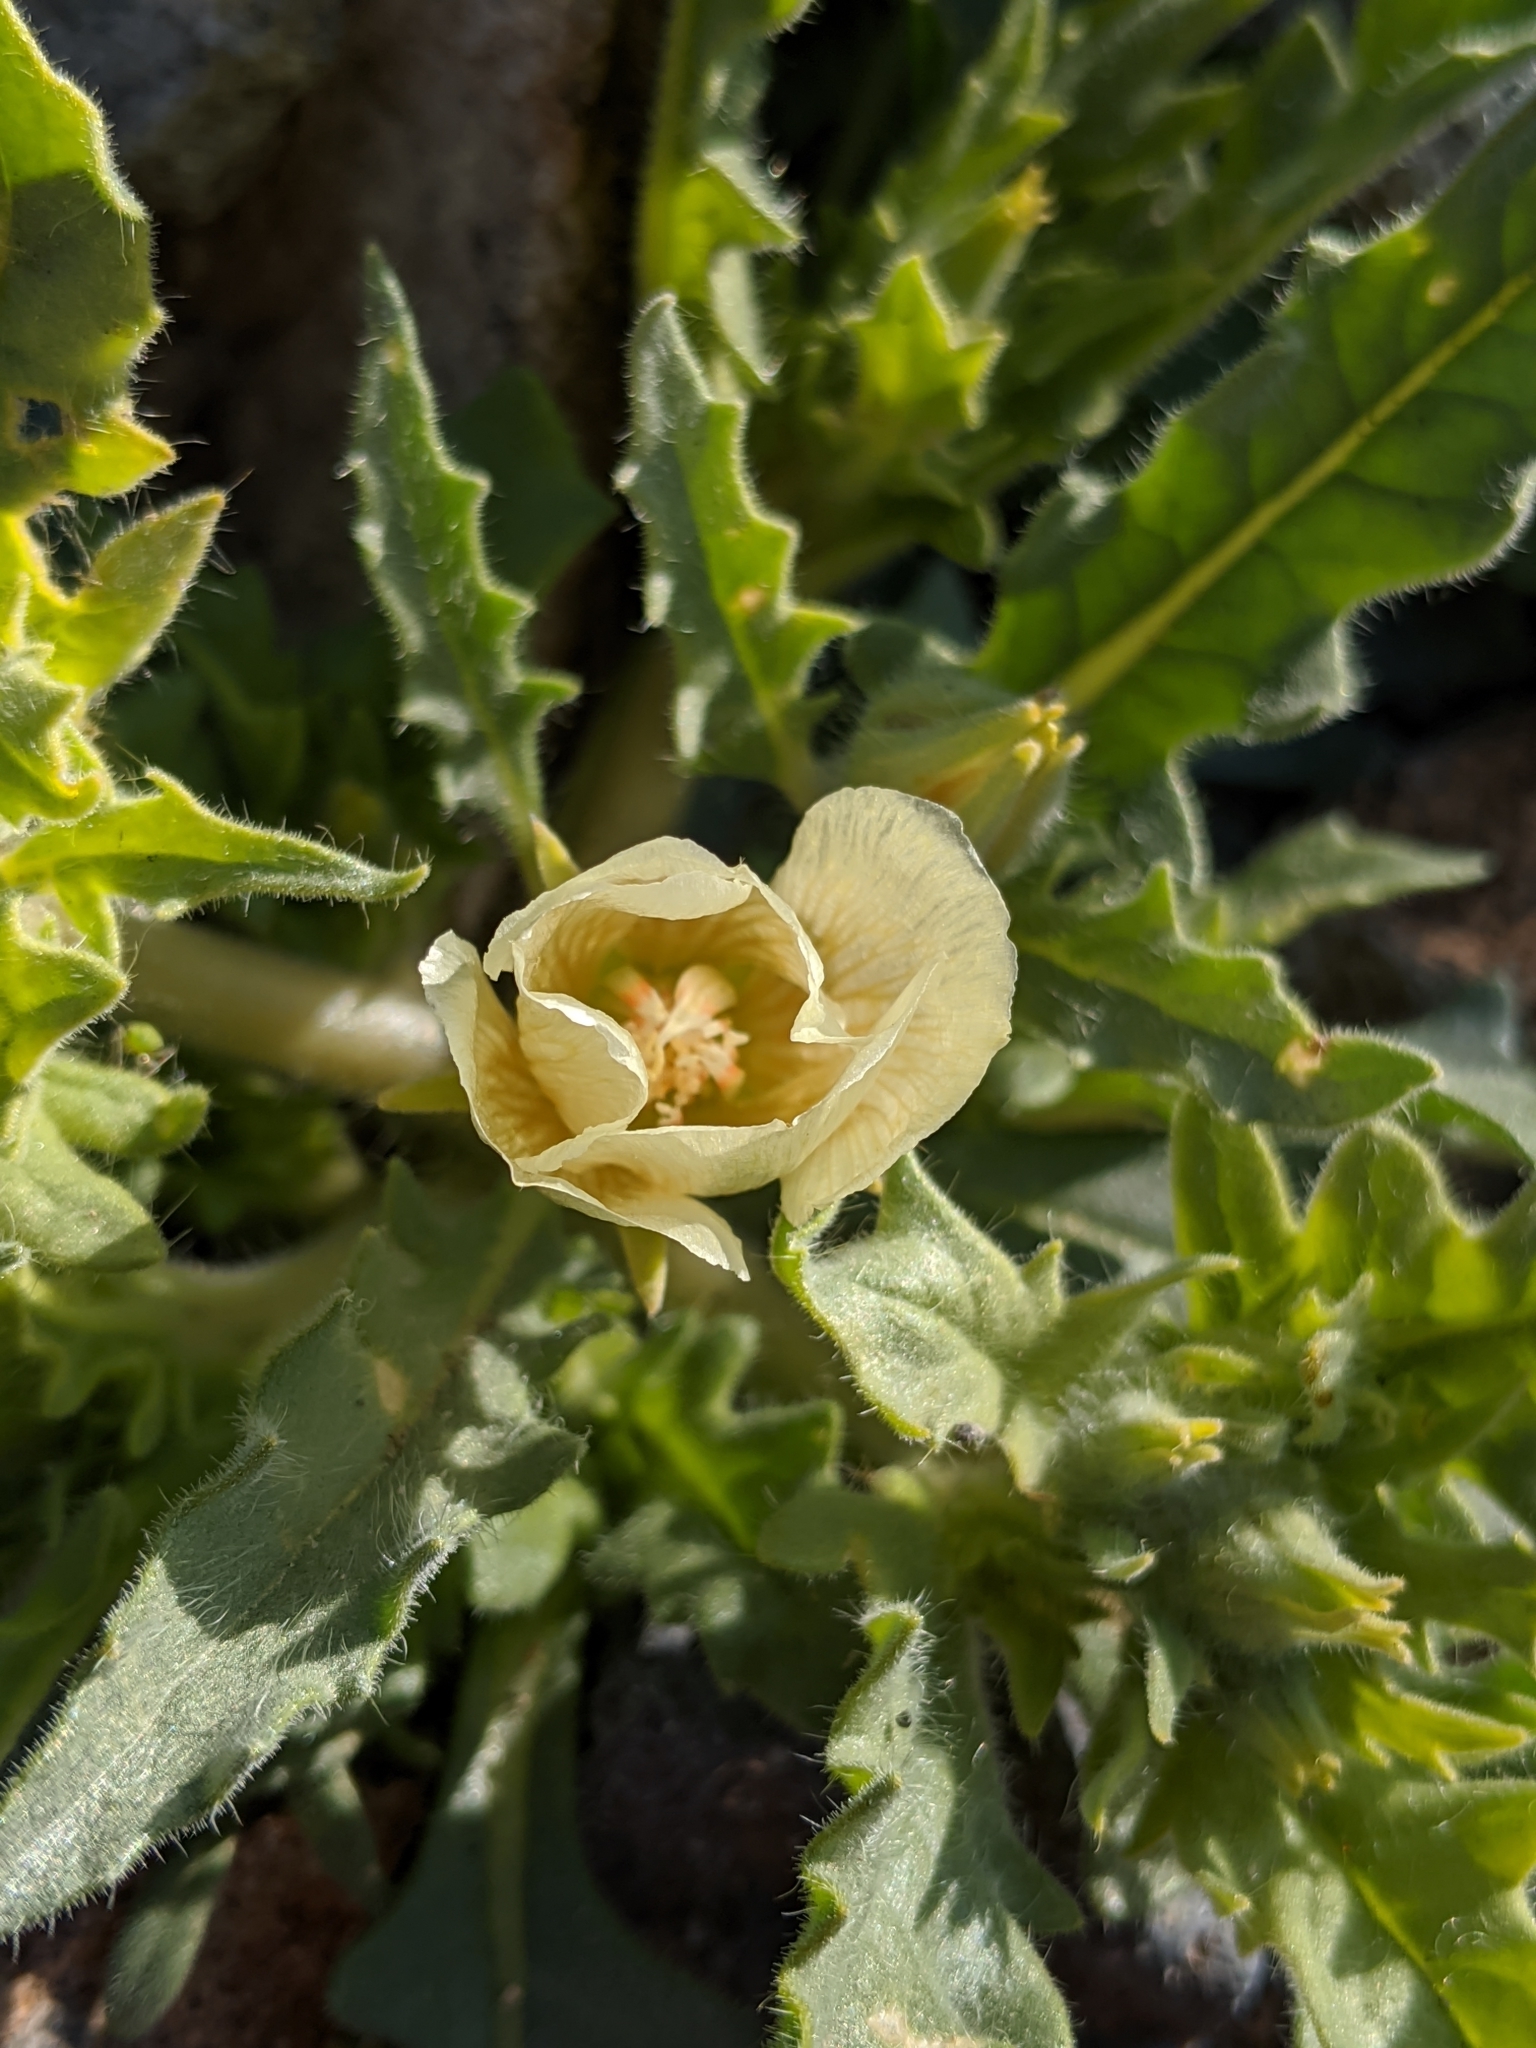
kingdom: Plantae
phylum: Tracheophyta
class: Magnoliopsida
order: Cornales
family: Loasaceae
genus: Mentzelia
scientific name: Mentzelia involucrata
